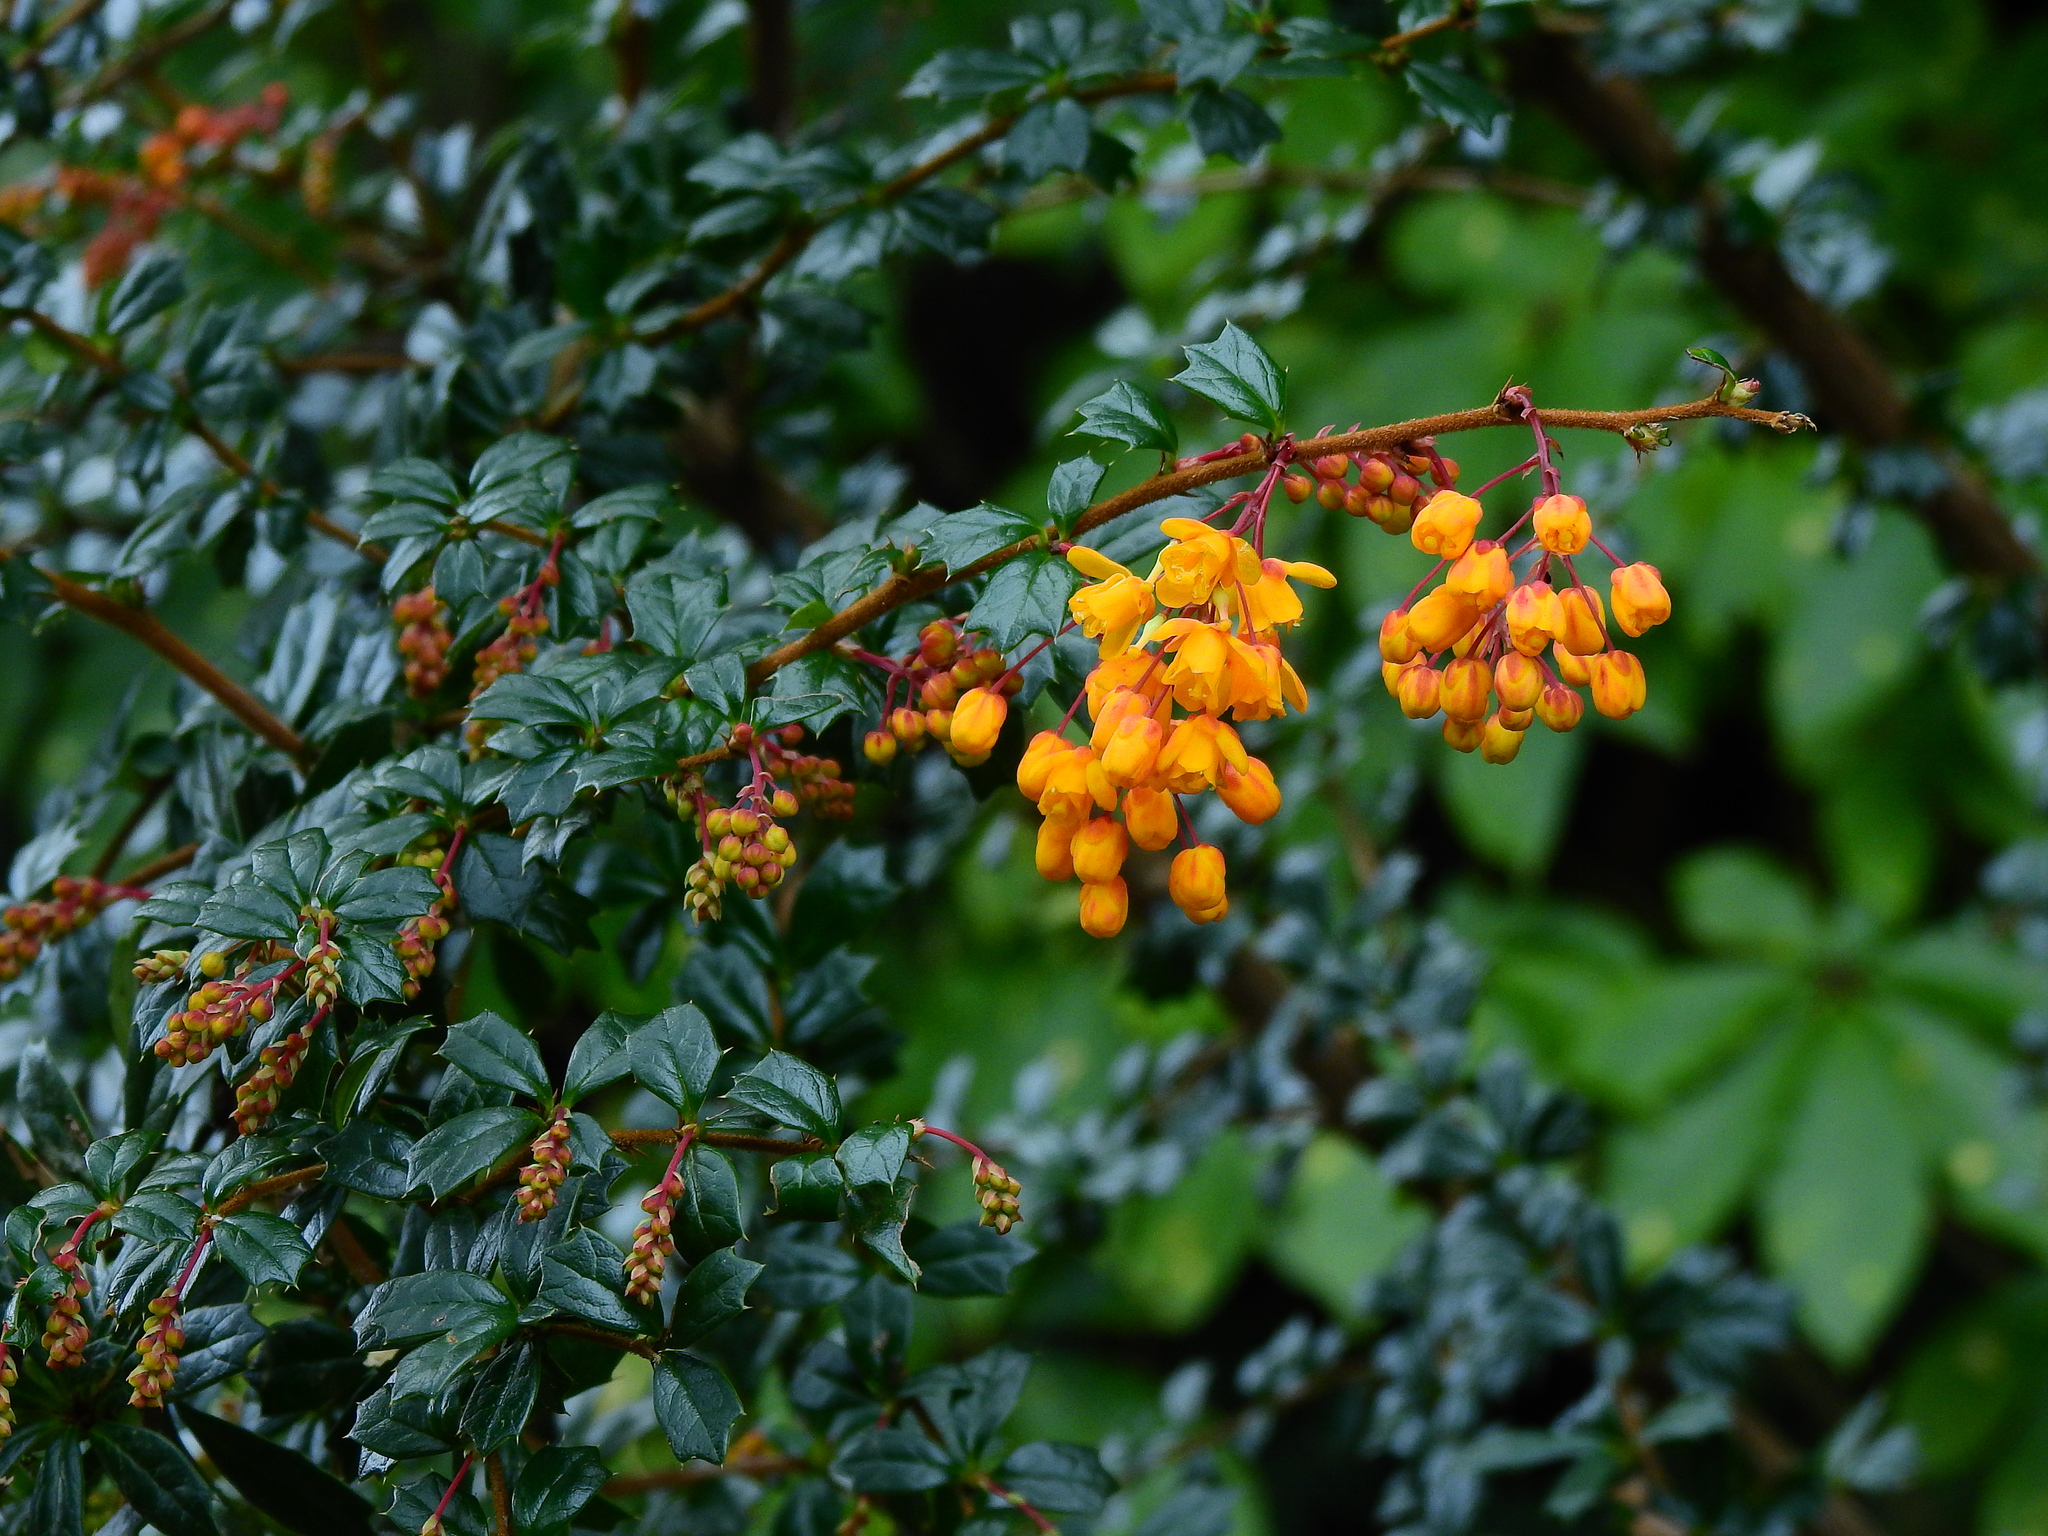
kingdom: Plantae
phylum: Tracheophyta
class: Magnoliopsida
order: Ranunculales
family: Berberidaceae
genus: Berberis
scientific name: Berberis darwinii
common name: Darwin's barberry
